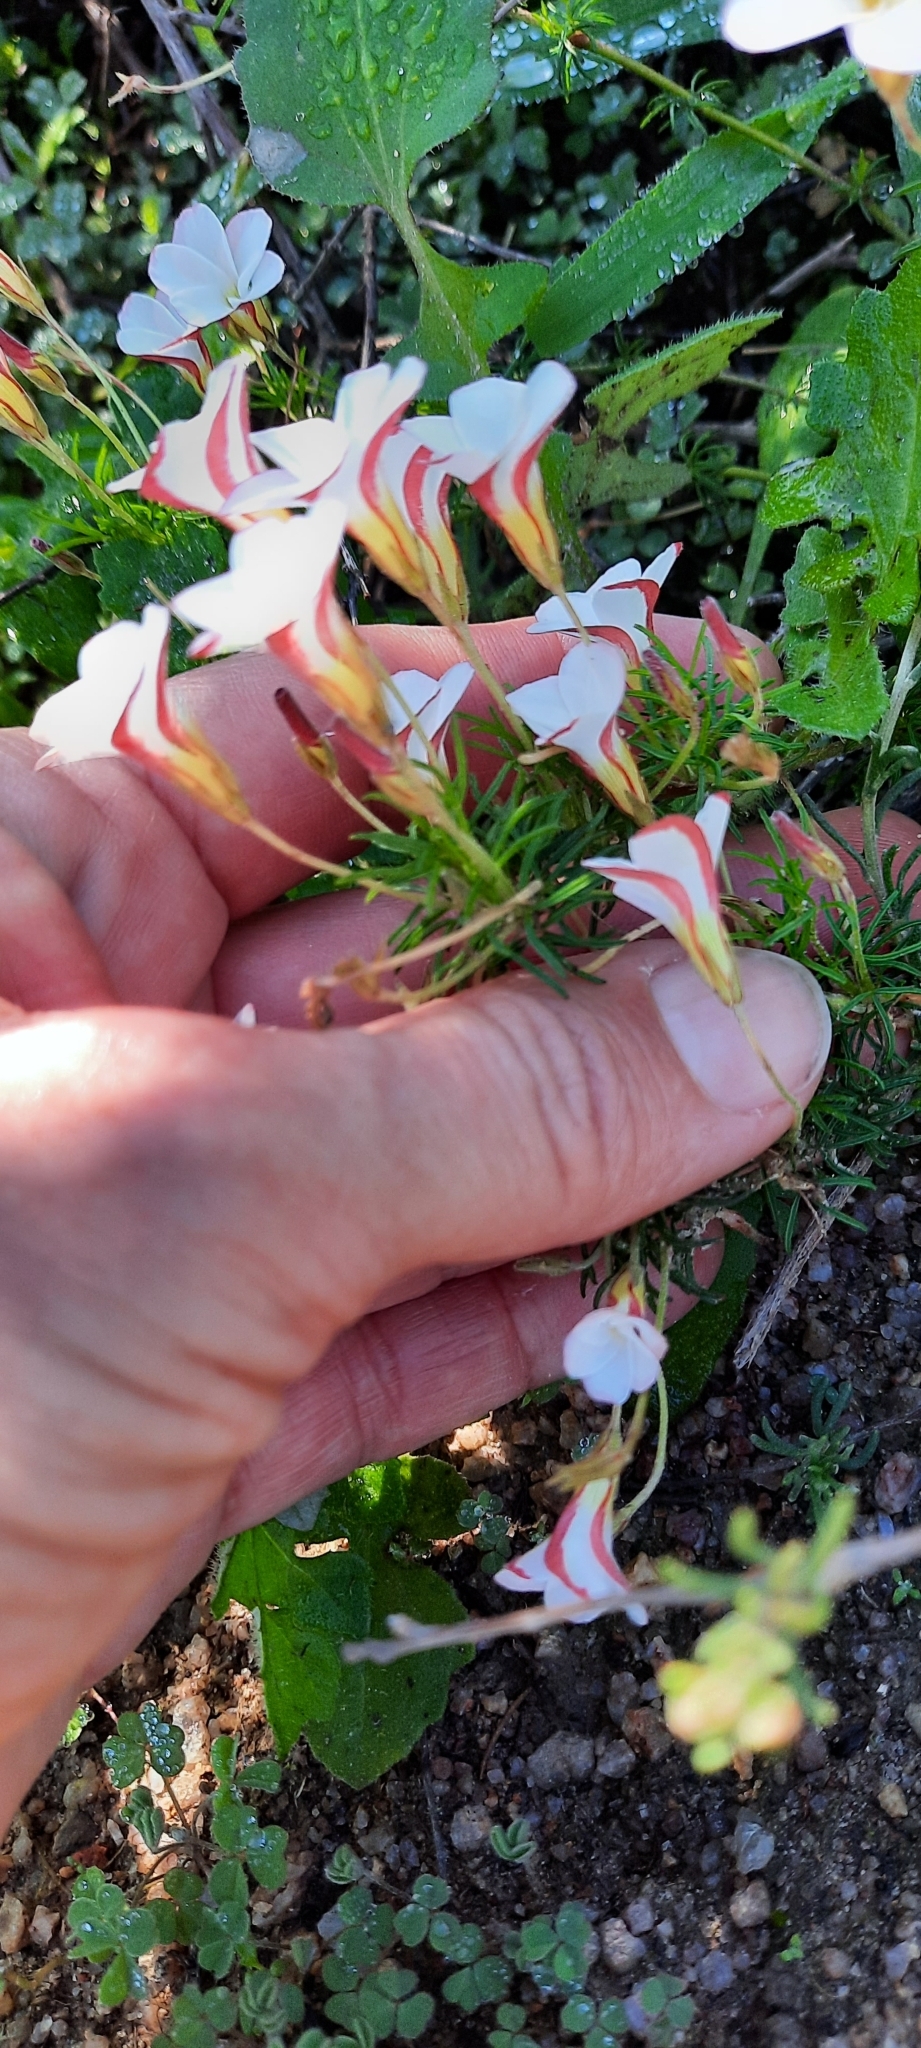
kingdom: Plantae
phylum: Tracheophyta
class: Magnoliopsida
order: Oxalidales
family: Oxalidaceae
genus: Oxalis
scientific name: Oxalis tenuifolia
